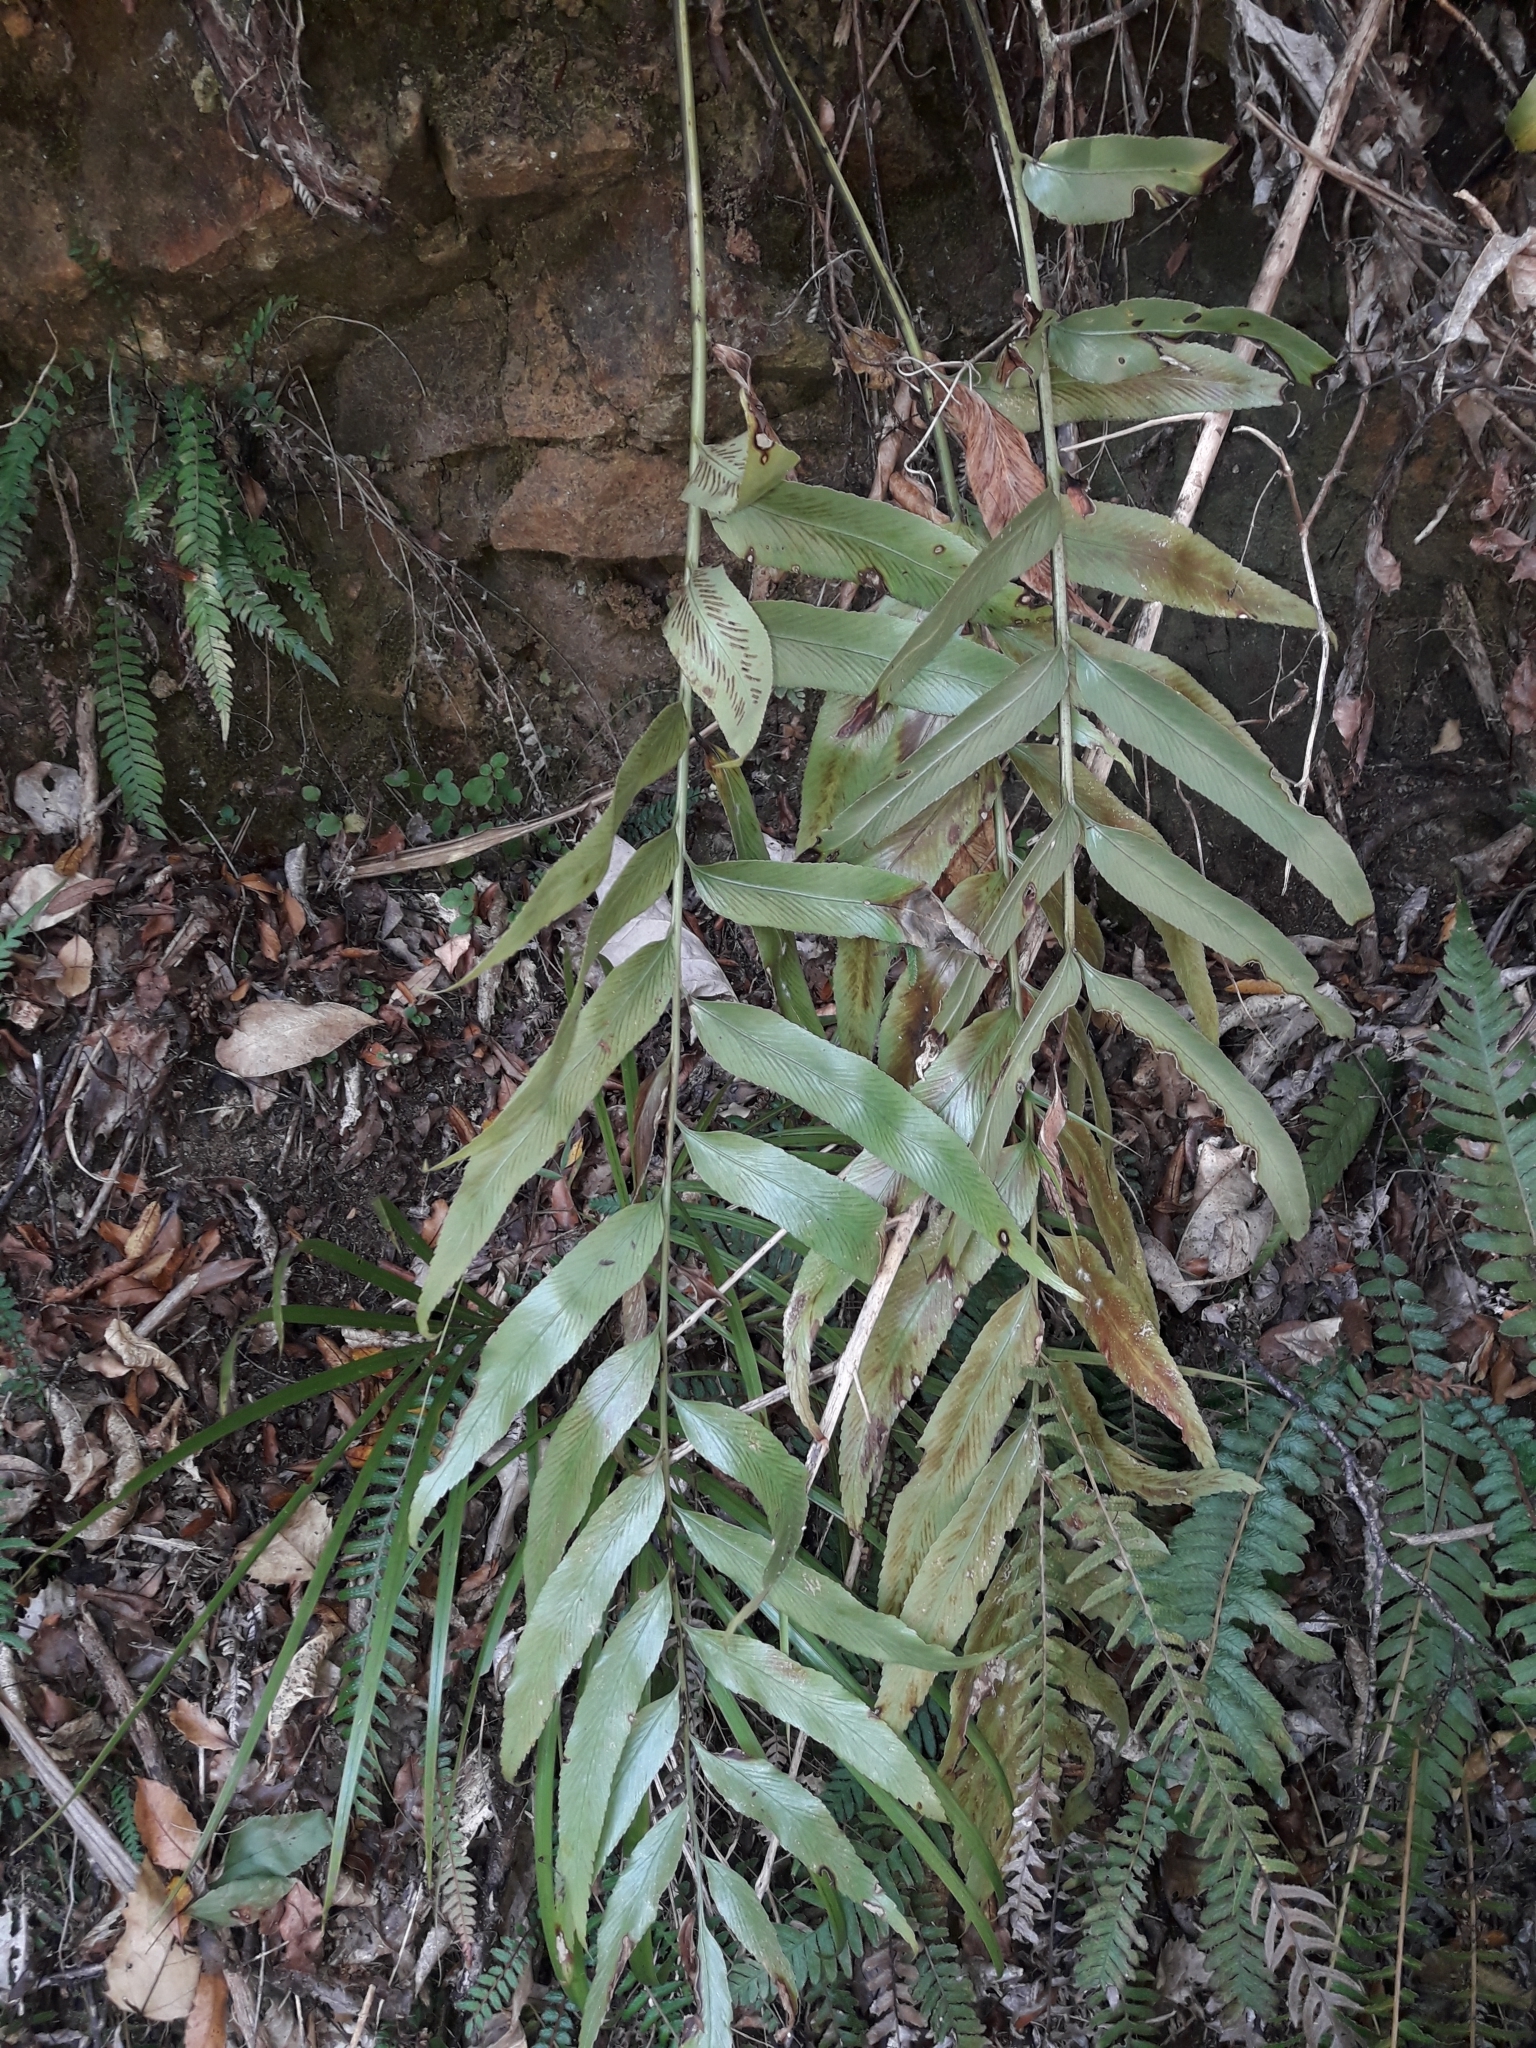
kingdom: Plantae
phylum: Tracheophyta
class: Polypodiopsida
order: Polypodiales
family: Aspleniaceae
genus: Asplenium
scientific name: Asplenium oblongifolium
